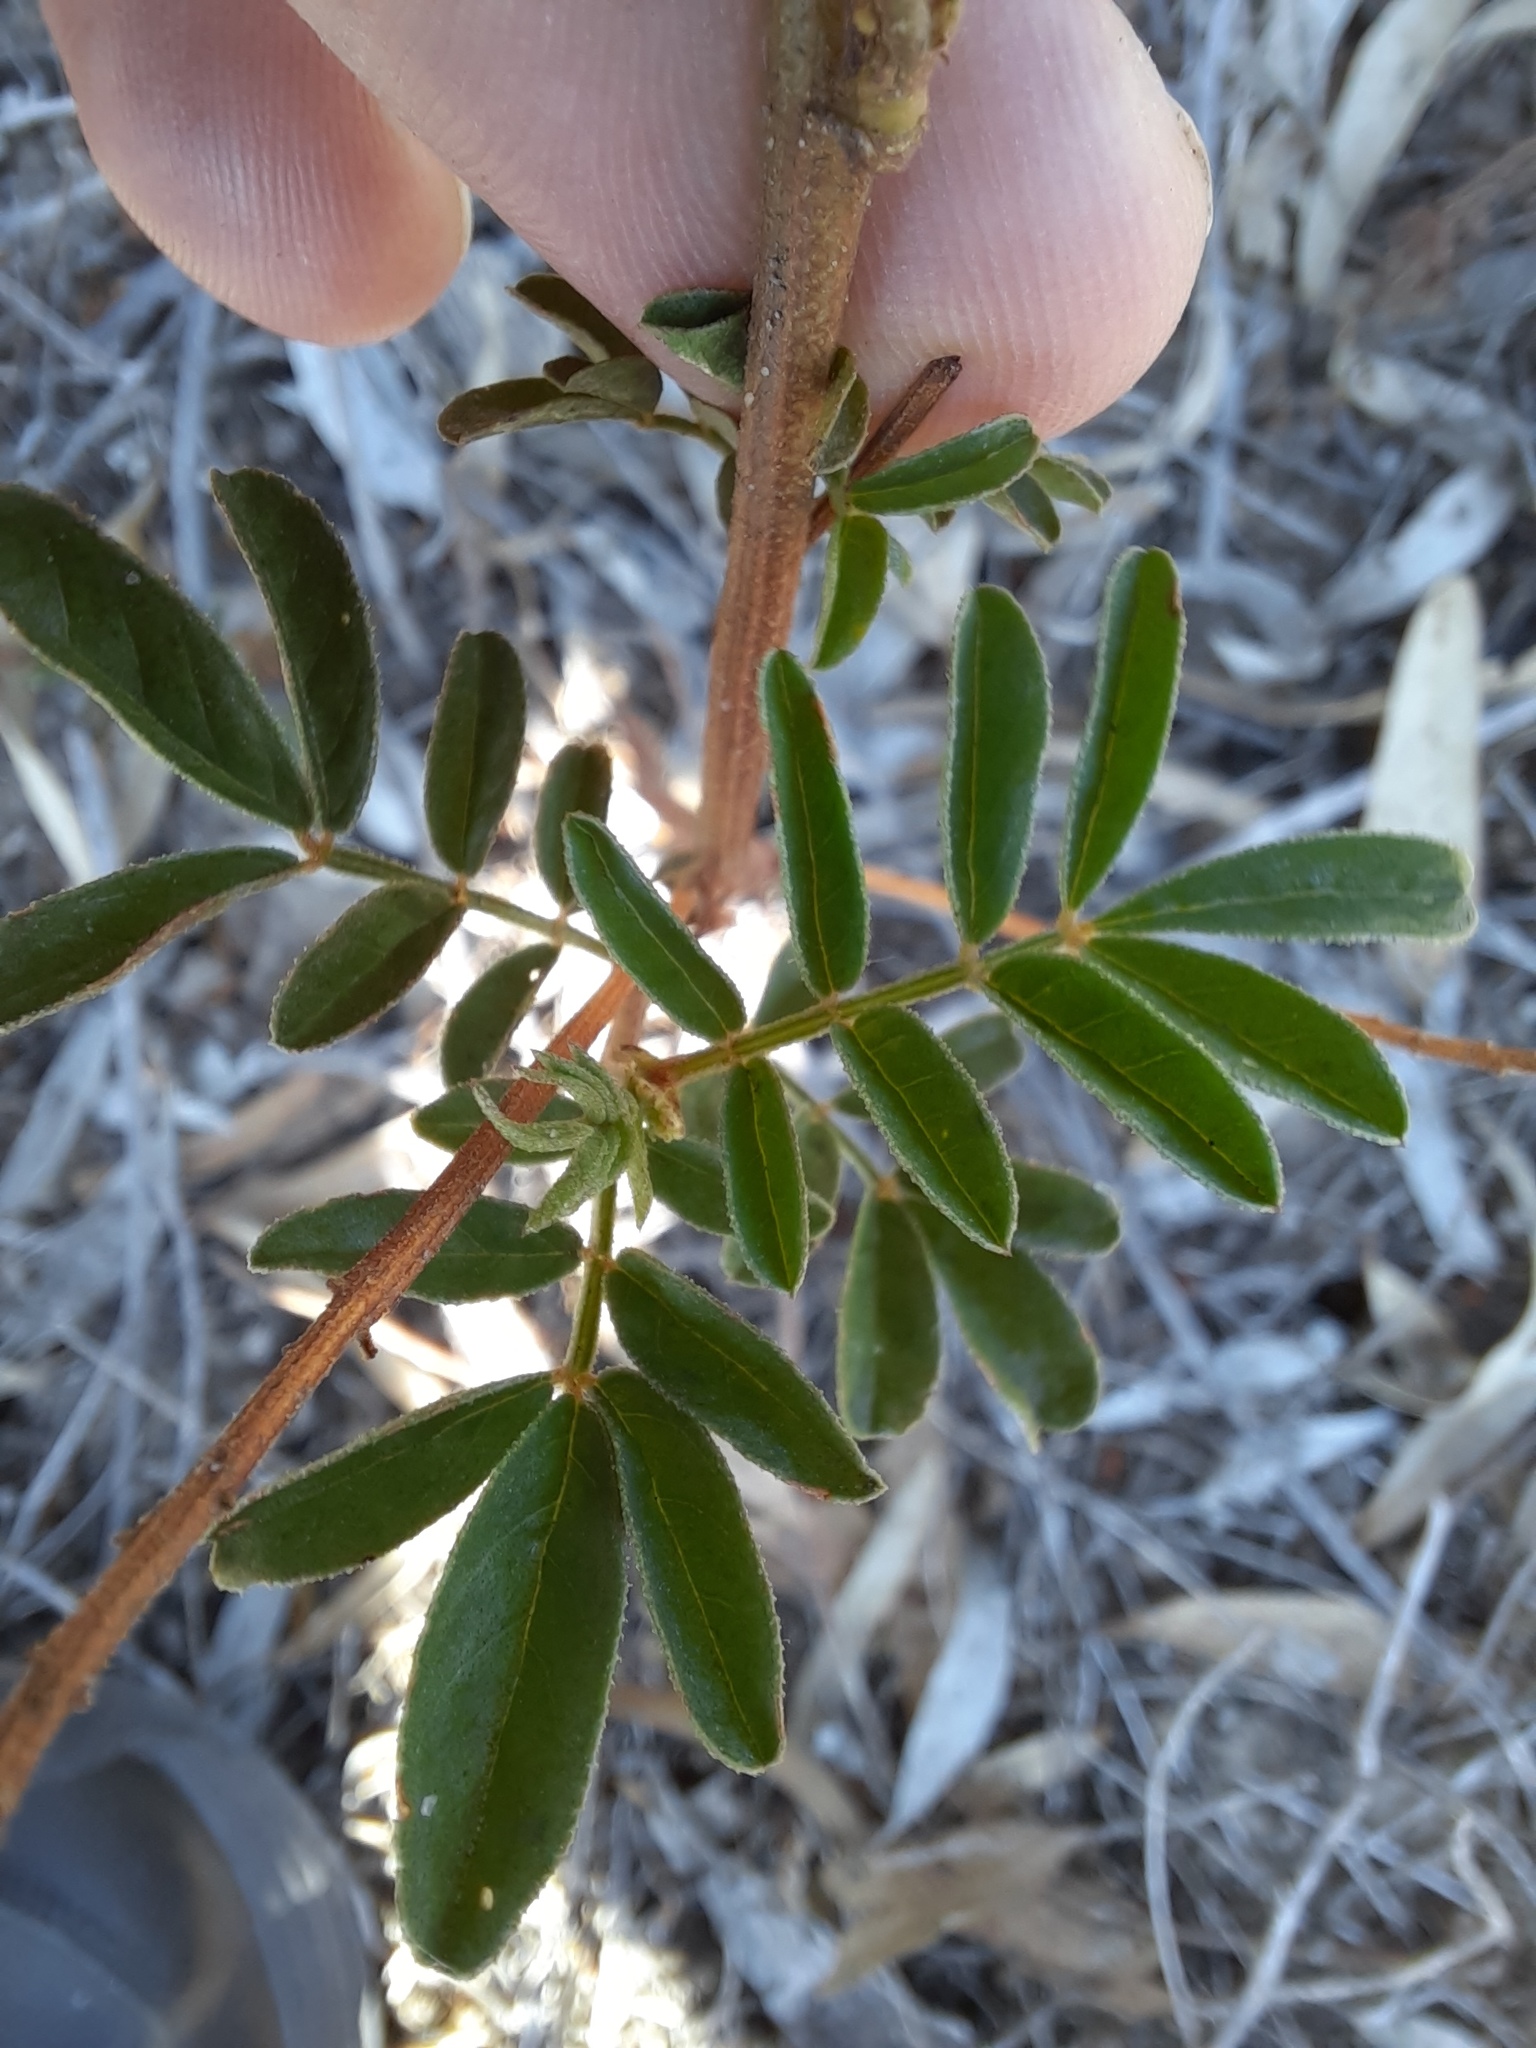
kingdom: Plantae
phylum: Tracheophyta
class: Magnoliopsida
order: Fabales
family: Fabaceae
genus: Glycyrrhiza
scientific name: Glycyrrhiza acanthocarpa
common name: Southern liquorice
